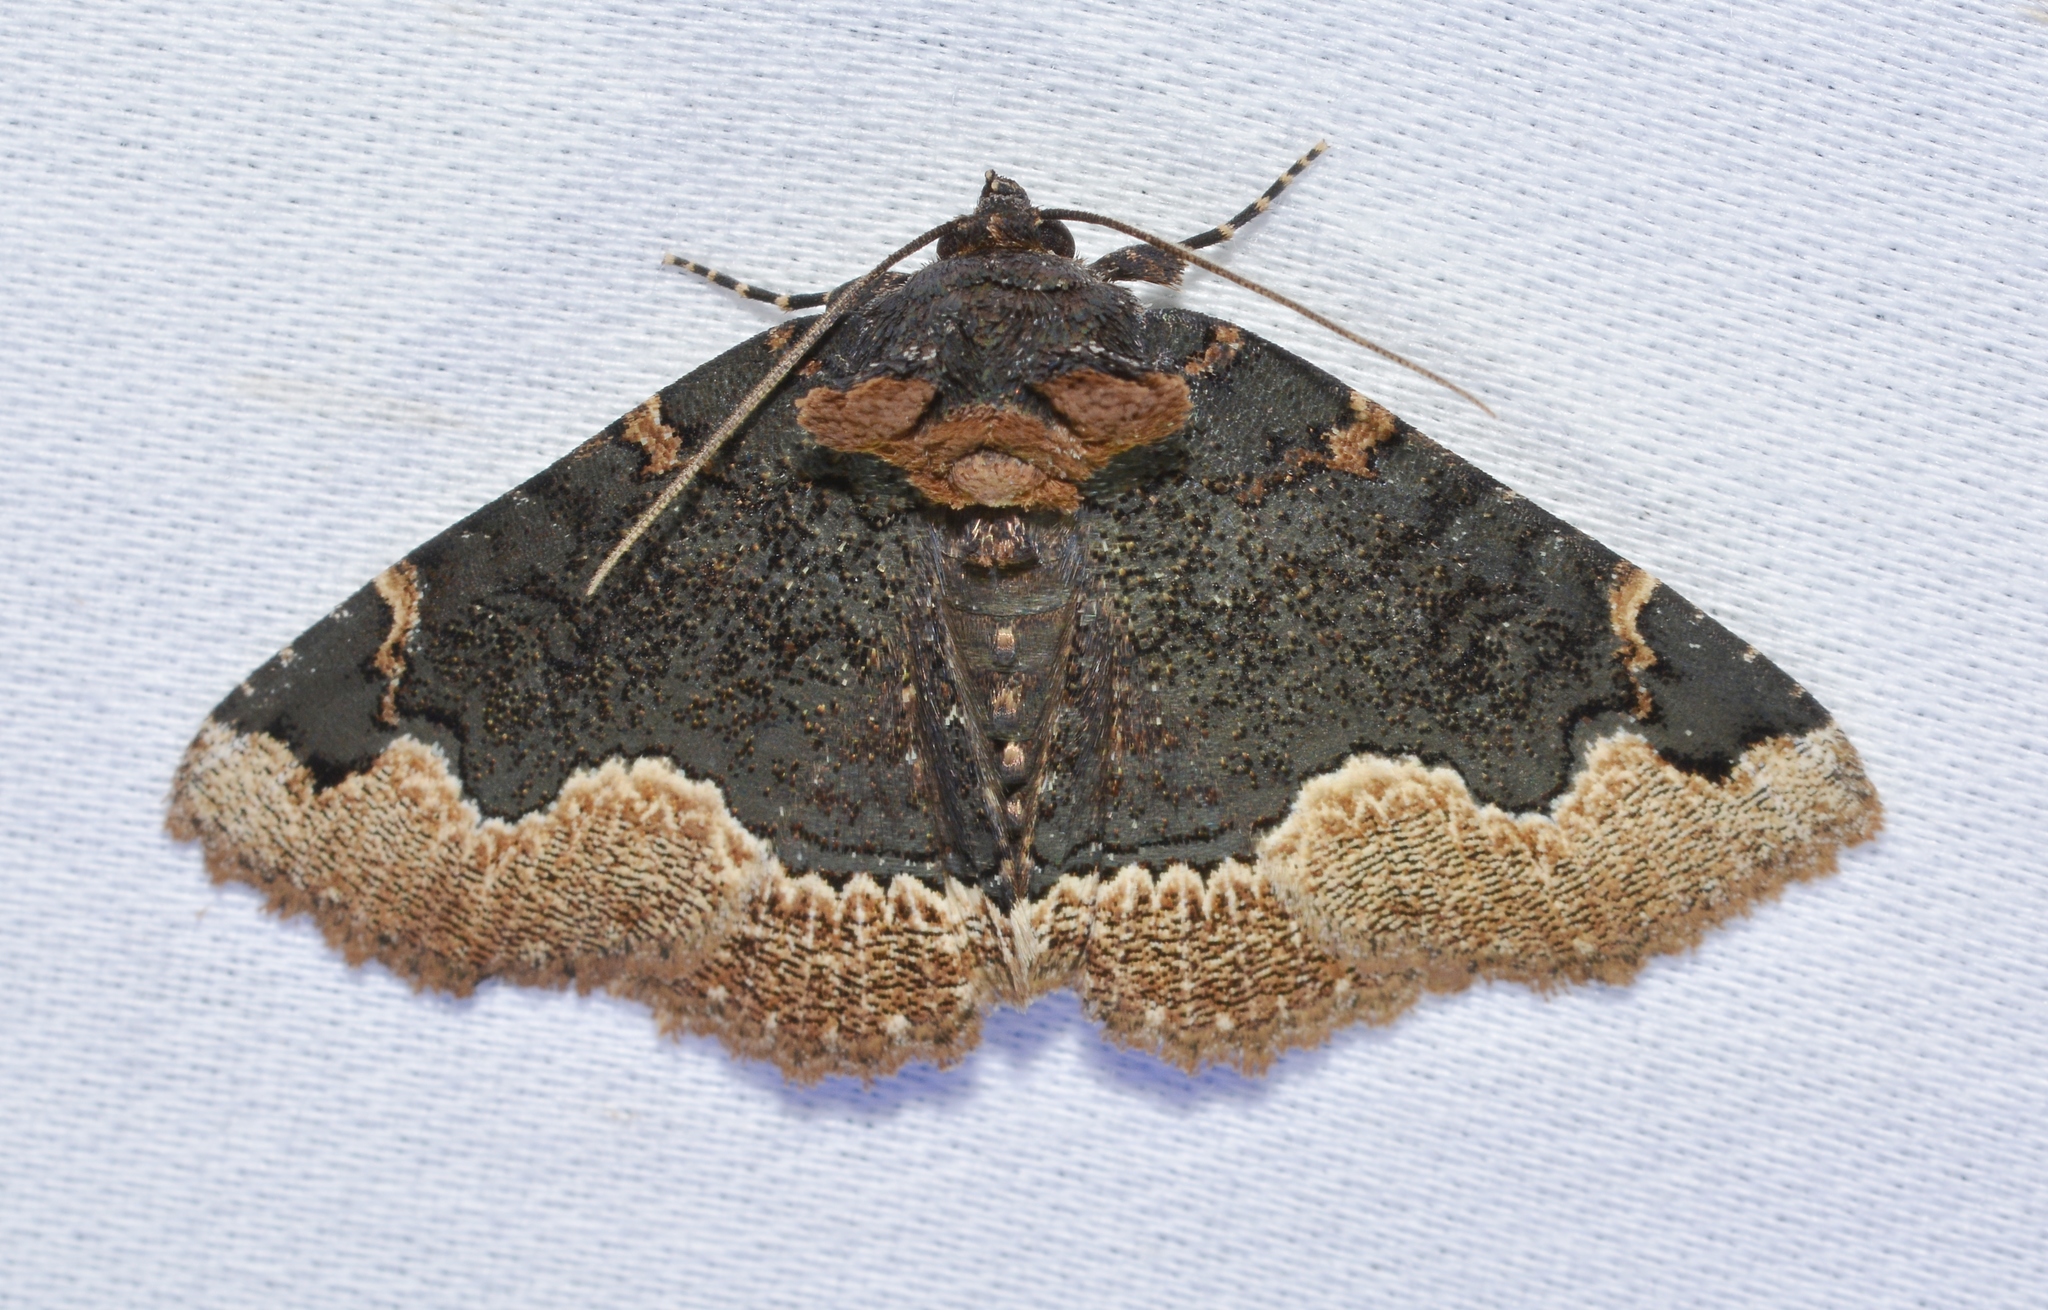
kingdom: Animalia
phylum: Arthropoda
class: Insecta
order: Lepidoptera
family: Erebidae
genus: Zale
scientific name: Zale horrida
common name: Horrid zale moth
